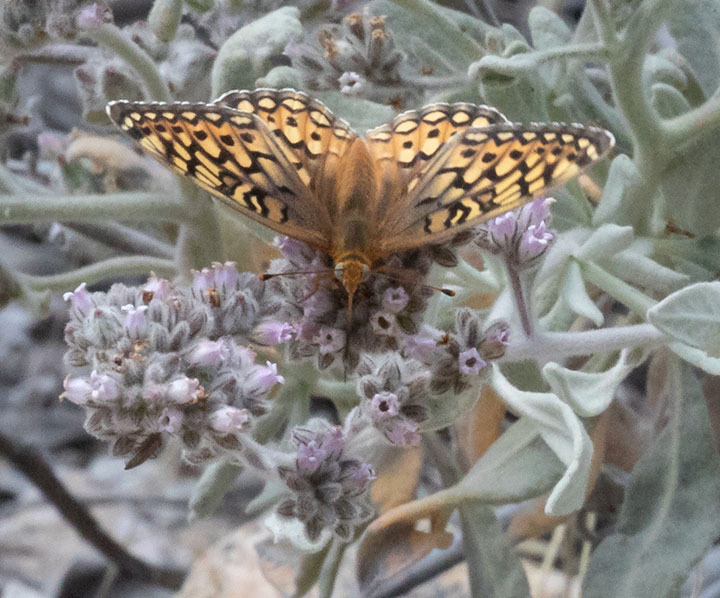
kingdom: Animalia
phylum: Arthropoda
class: Insecta
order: Lepidoptera
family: Nymphalidae
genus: Speyeria
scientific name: Speyeria callippe
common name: Callippe fritillary
